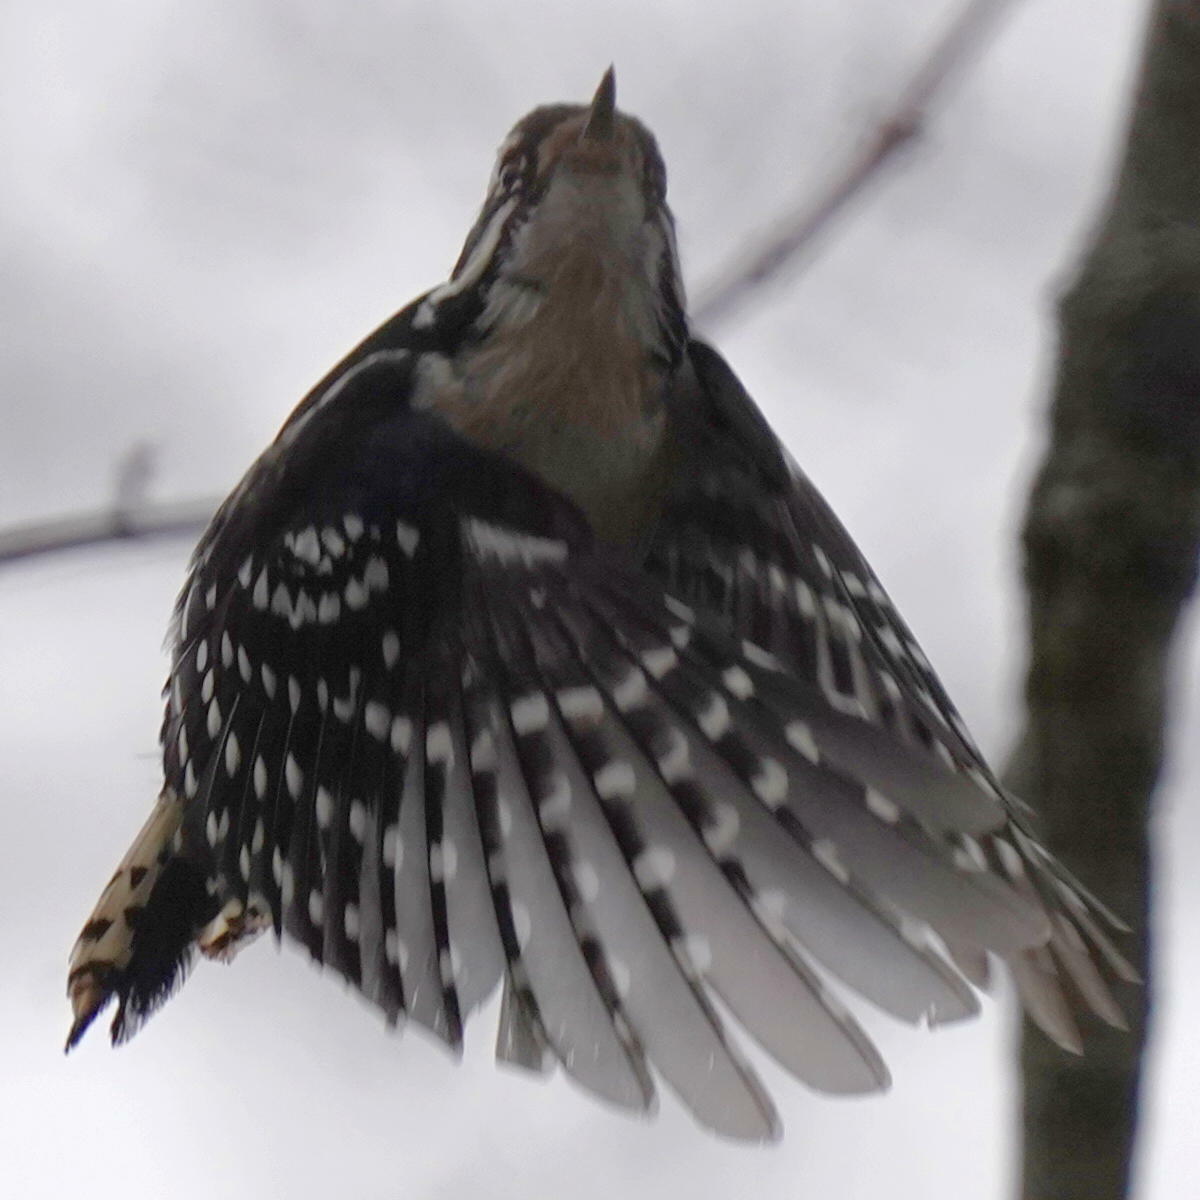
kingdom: Animalia
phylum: Chordata
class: Aves
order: Piciformes
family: Picidae
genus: Dryobates
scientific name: Dryobates pubescens
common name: Downy woodpecker
